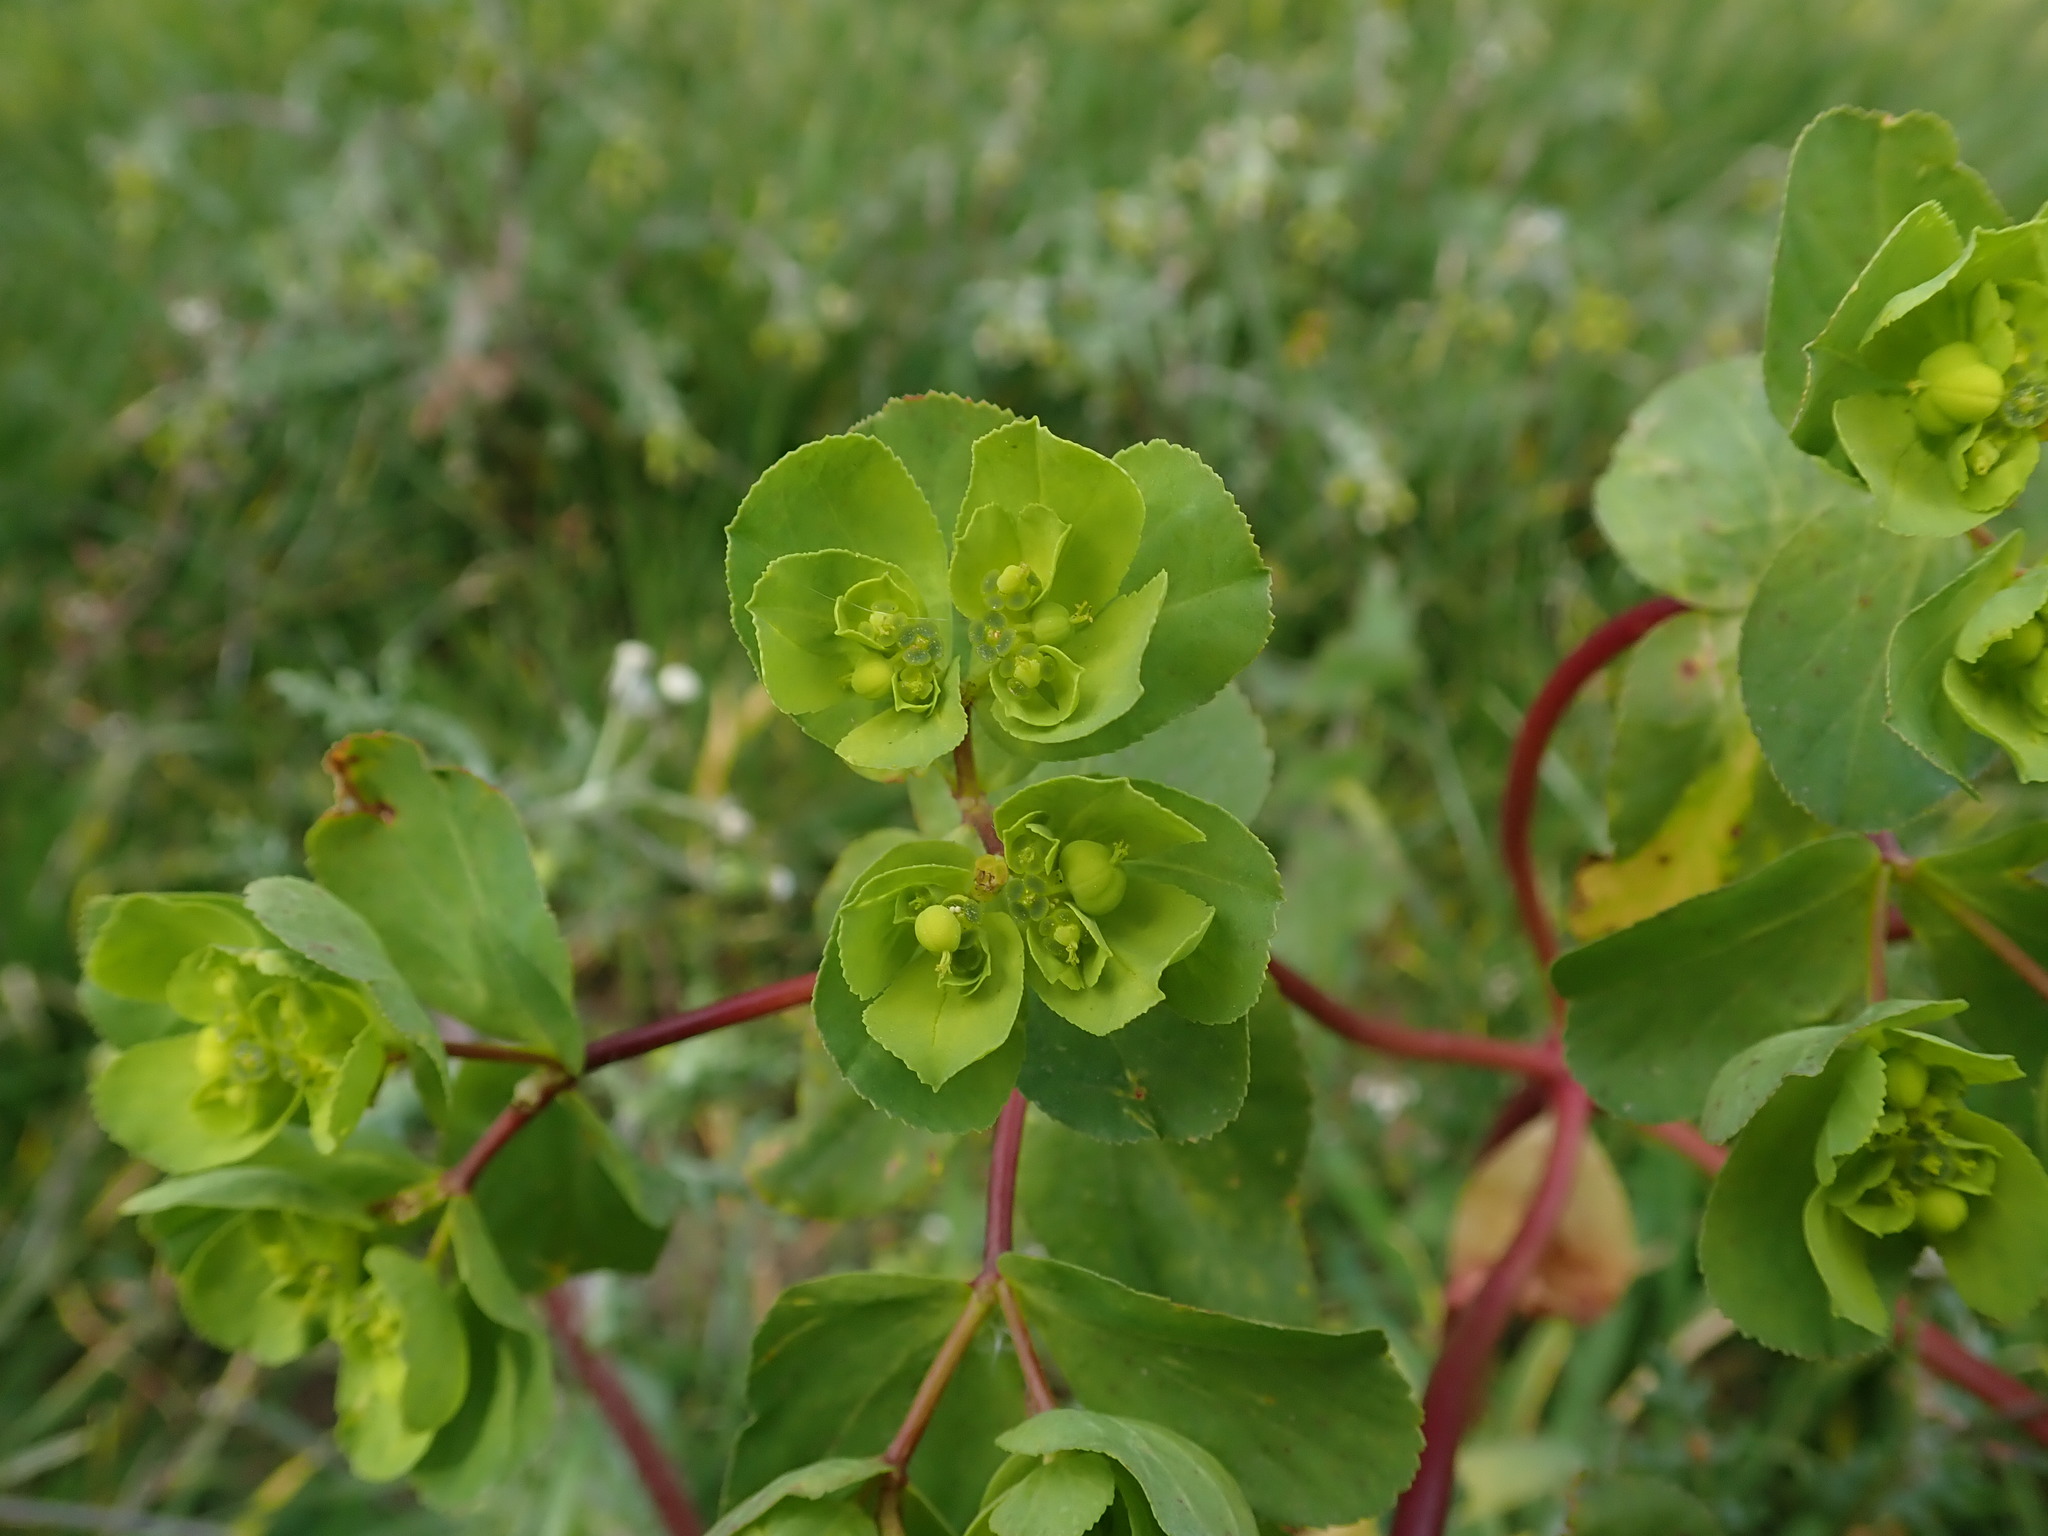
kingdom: Plantae
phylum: Tracheophyta
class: Magnoliopsida
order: Malpighiales
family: Euphorbiaceae
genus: Euphorbia
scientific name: Euphorbia helioscopia
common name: Sun spurge
